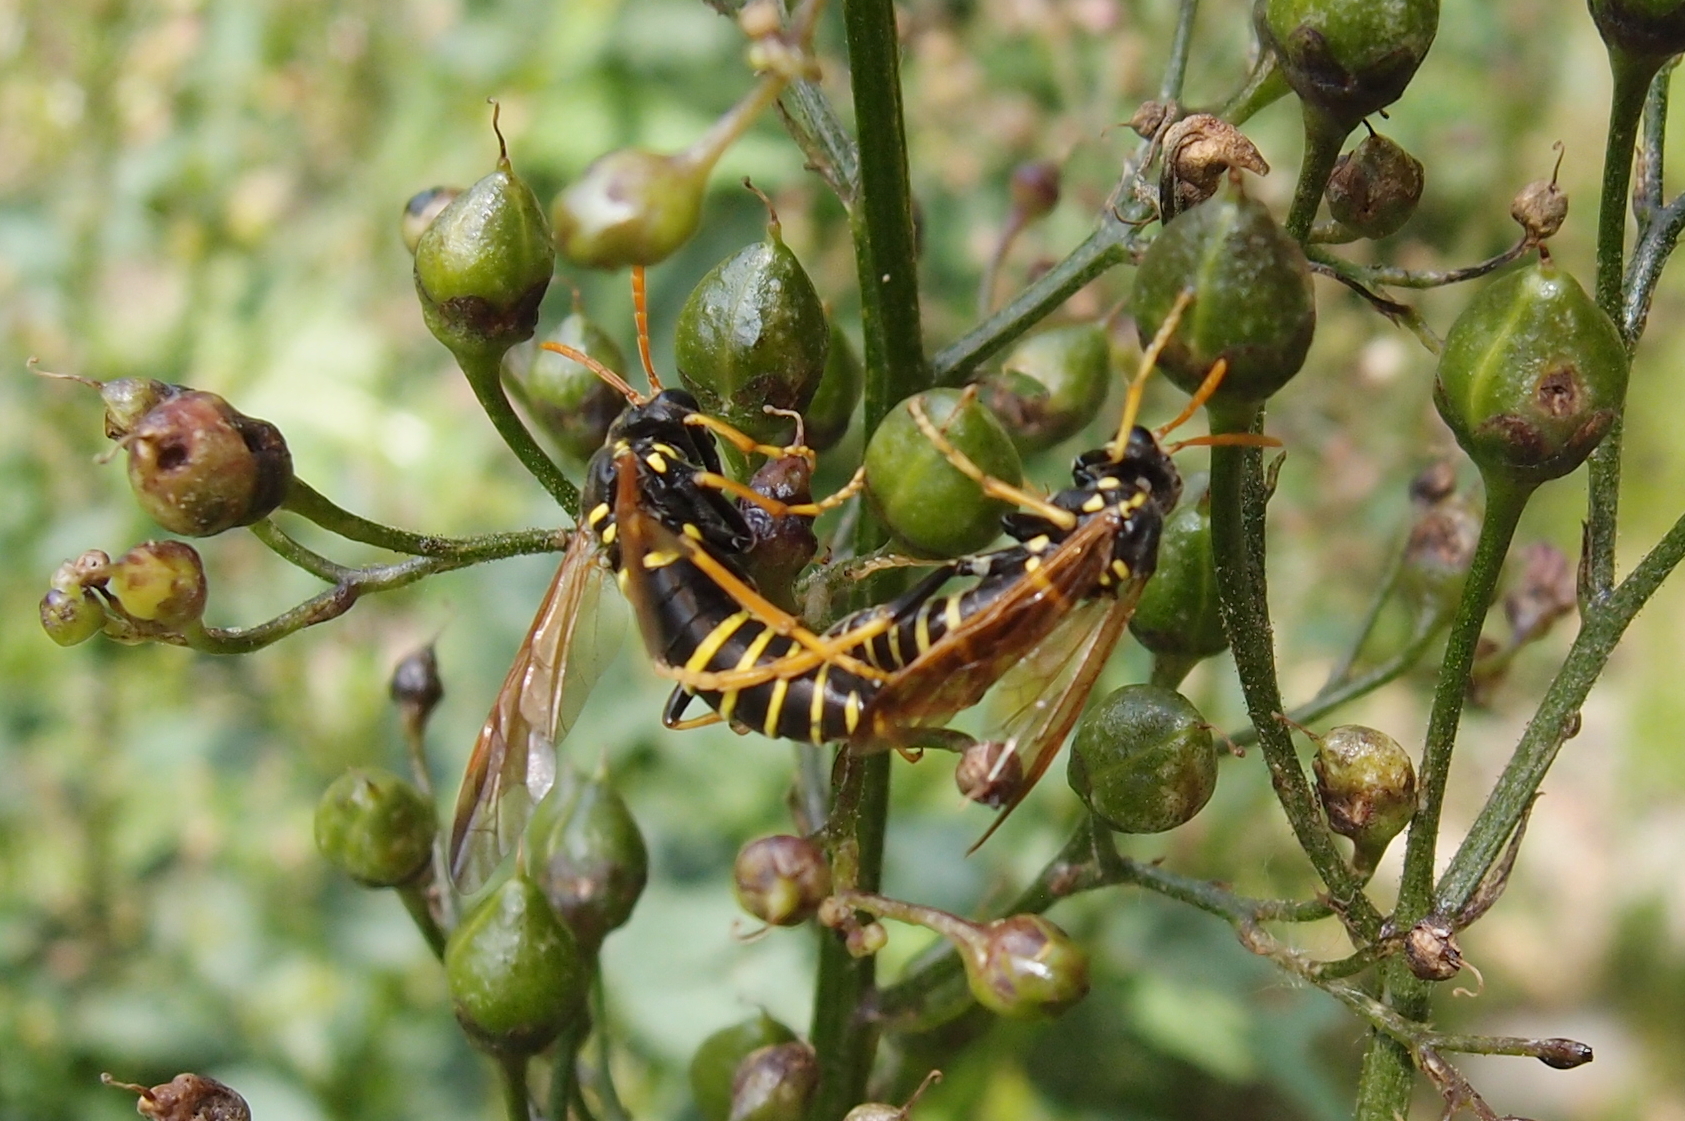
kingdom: Animalia
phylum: Arthropoda
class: Insecta
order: Hymenoptera
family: Tenthredinidae
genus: Tenthredo
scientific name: Tenthredo scrophulariae
